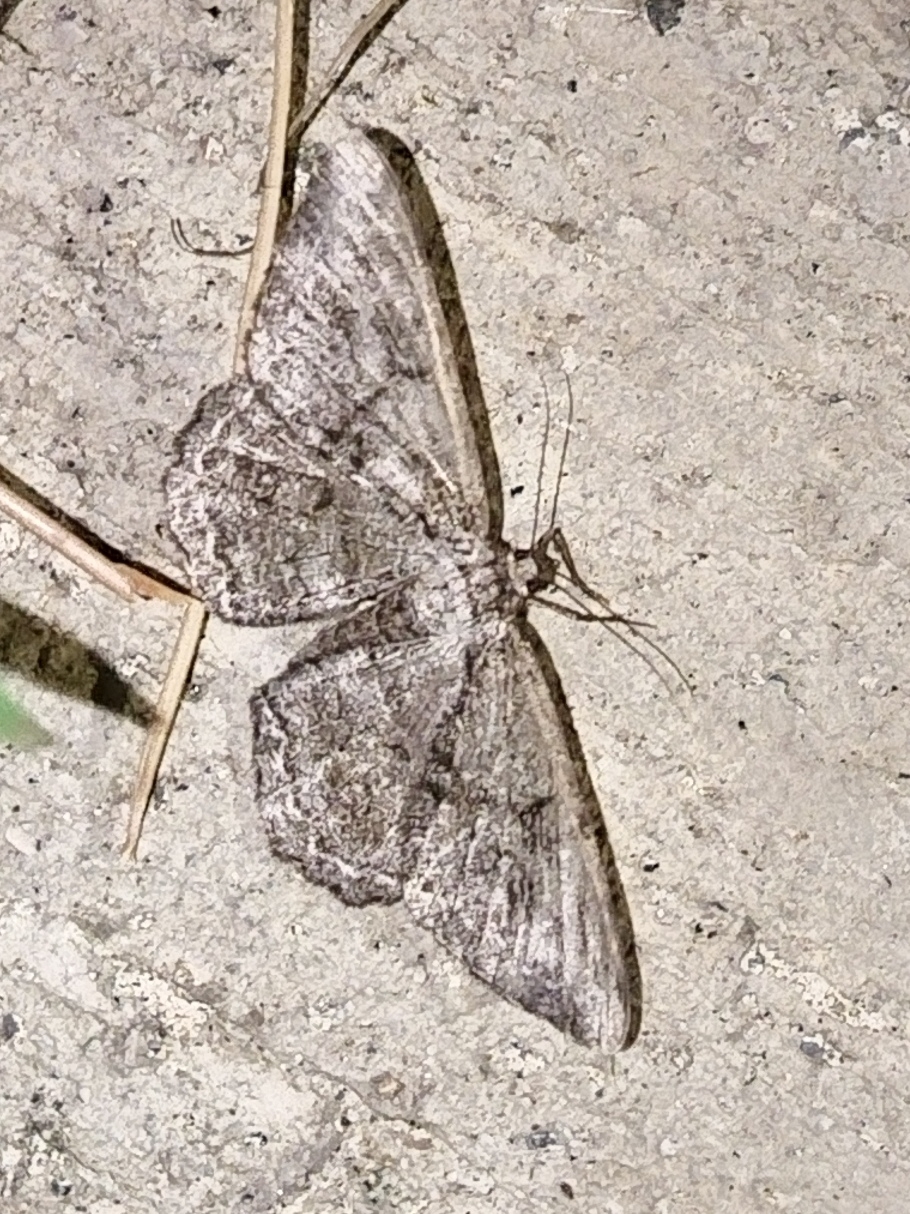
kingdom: Animalia
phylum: Arthropoda
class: Insecta
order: Lepidoptera
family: Geometridae
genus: Hypomecis
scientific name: Hypomecis roboraria
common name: Great oak beauty
